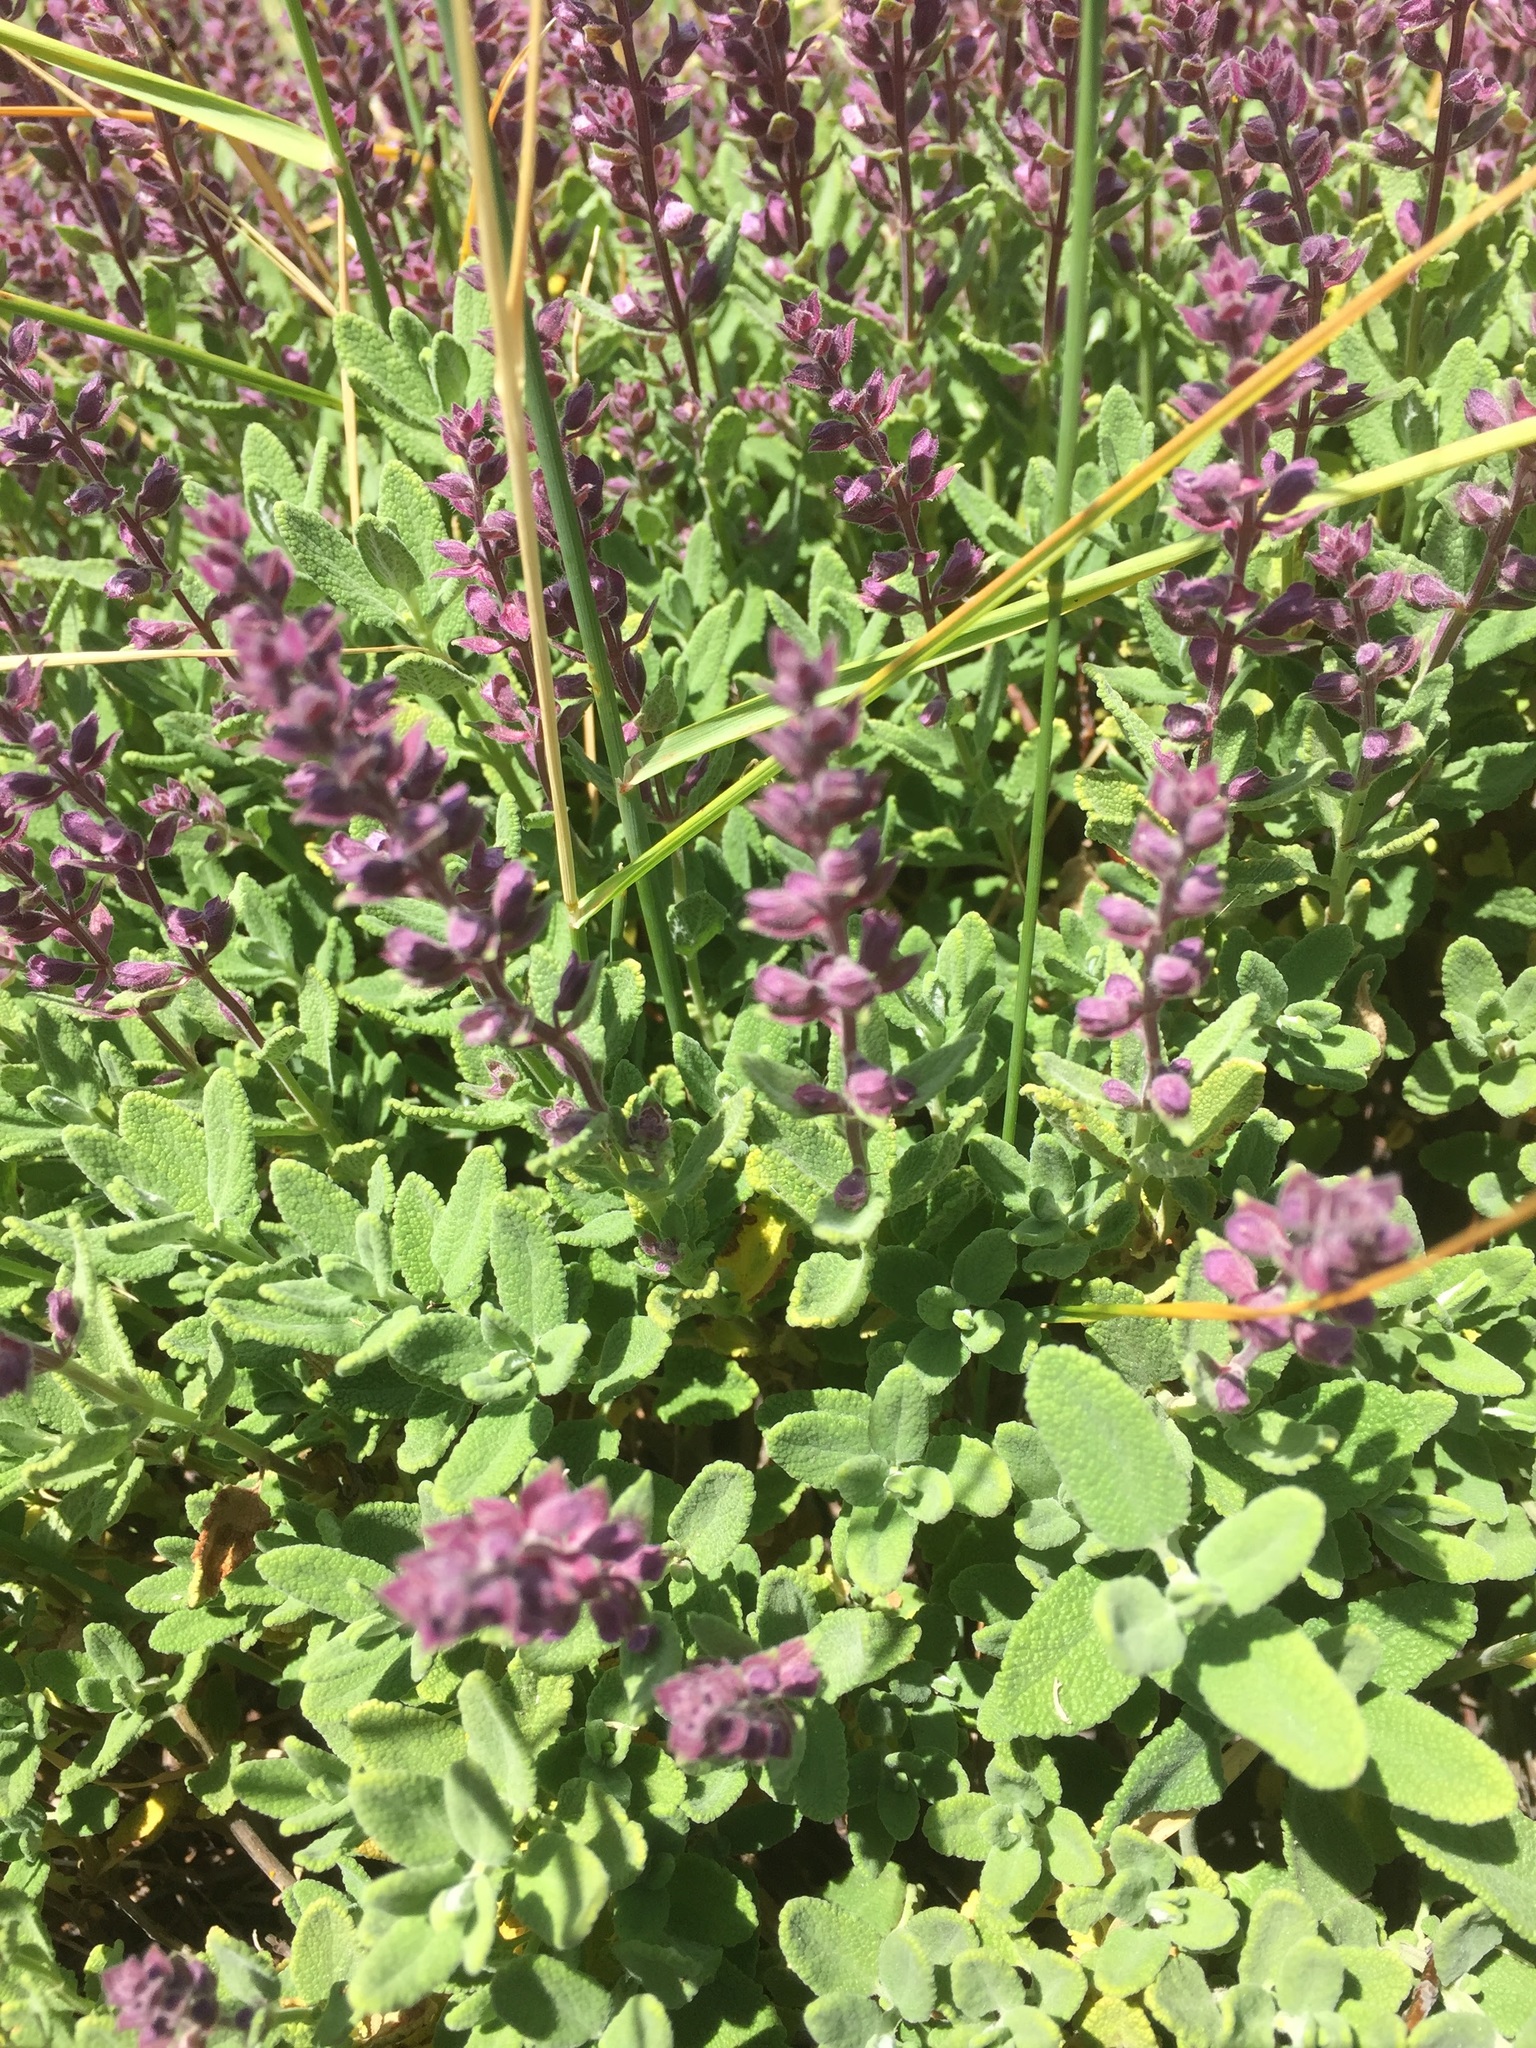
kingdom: Plantae
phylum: Tracheophyta
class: Magnoliopsida
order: Lamiales
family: Lamiaceae
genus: Teucrium
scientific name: Teucrium salviastrum
